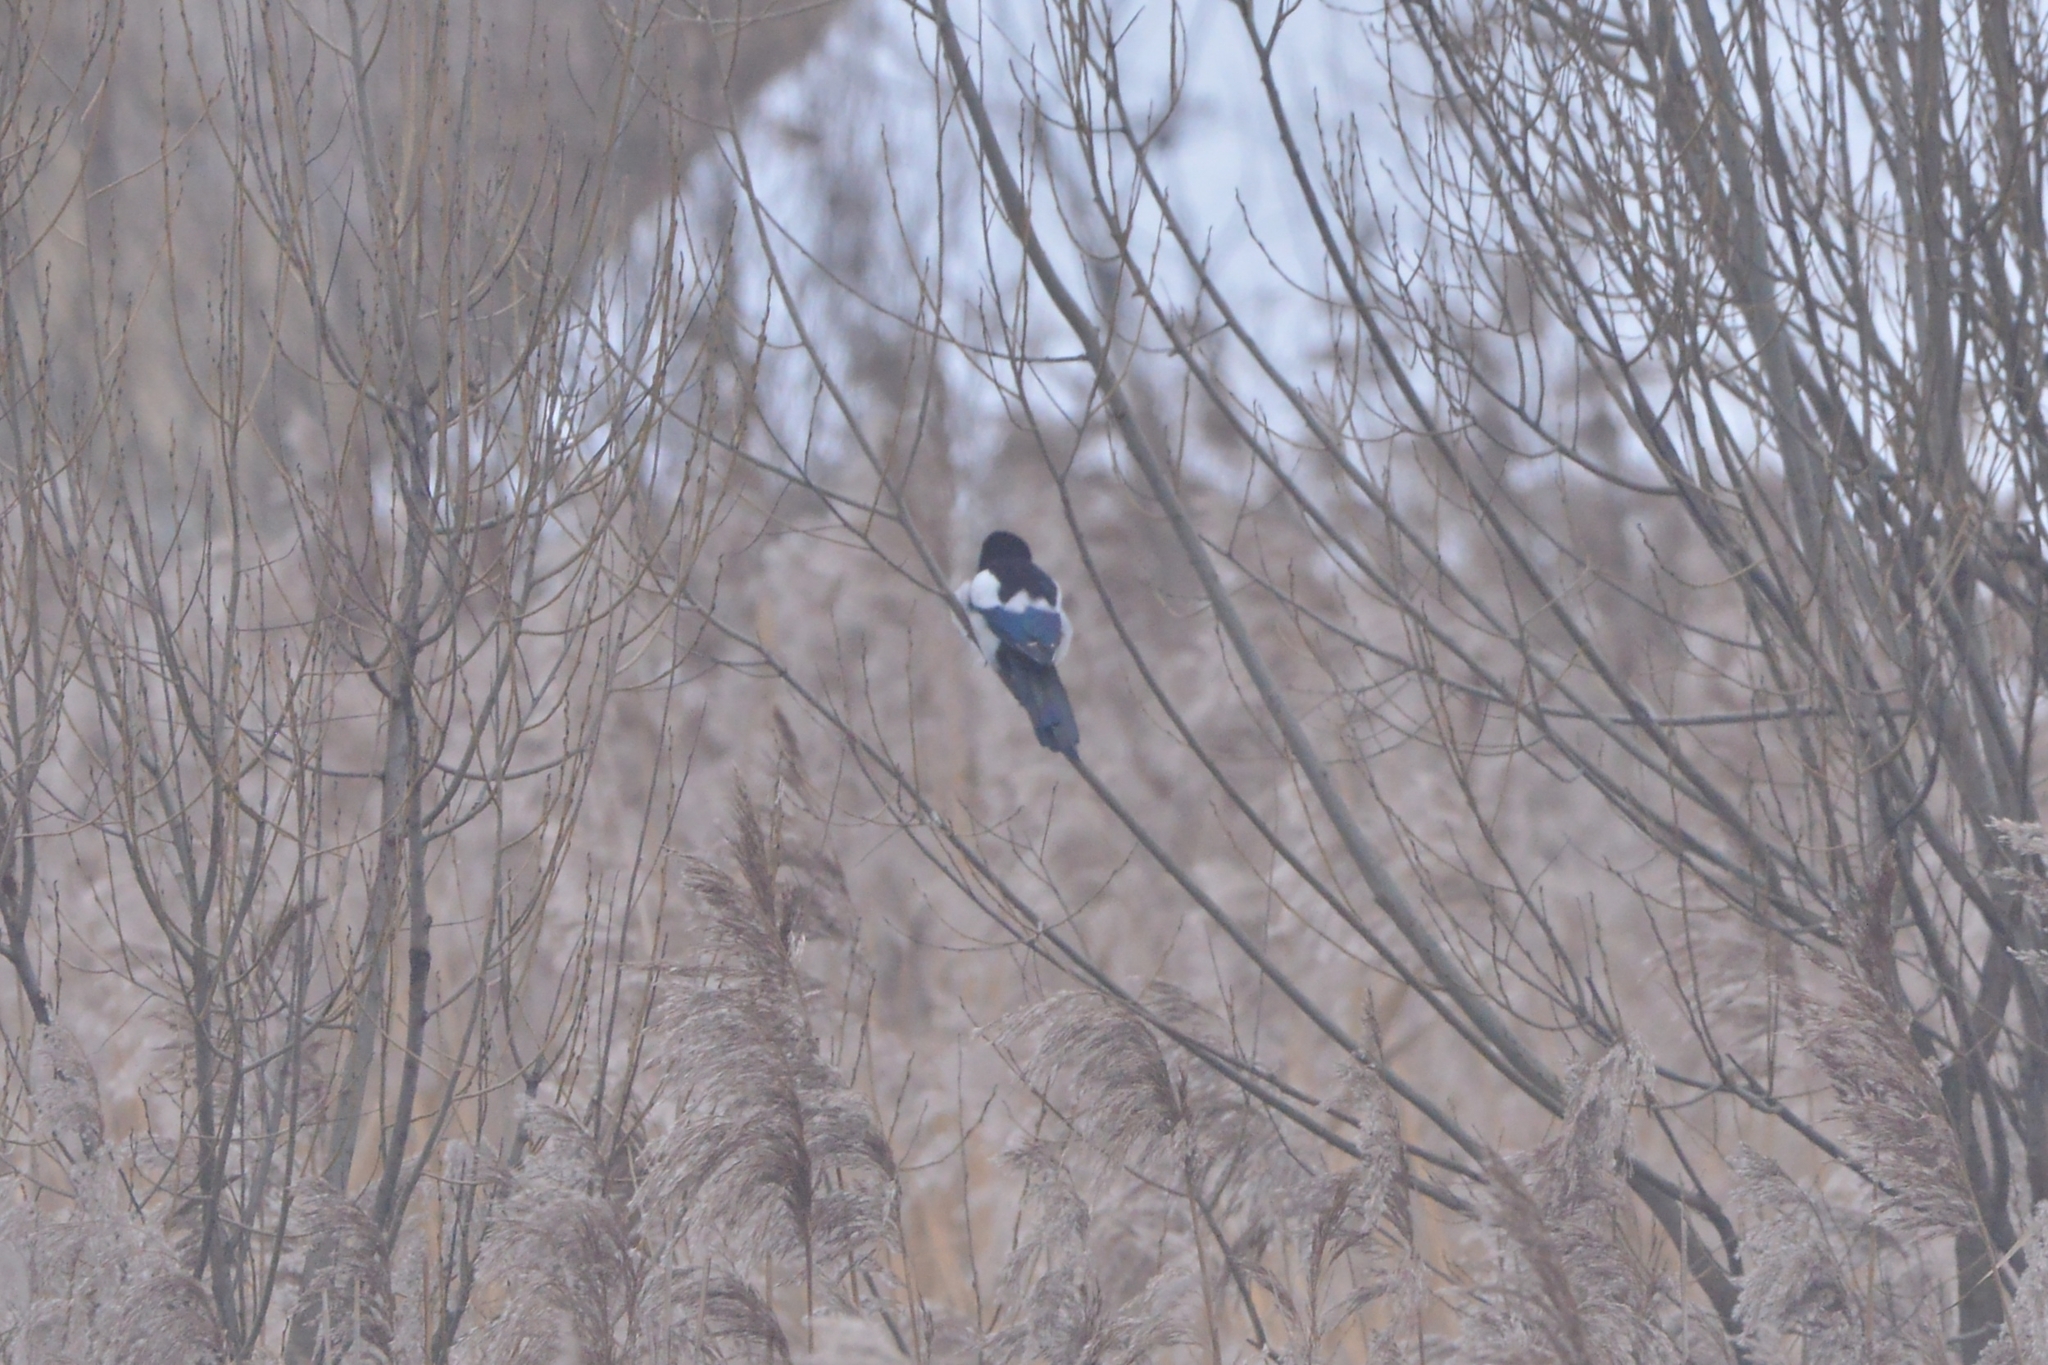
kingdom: Animalia
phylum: Chordata
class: Aves
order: Passeriformes
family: Corvidae
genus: Pica
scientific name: Pica pica
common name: Eurasian magpie
